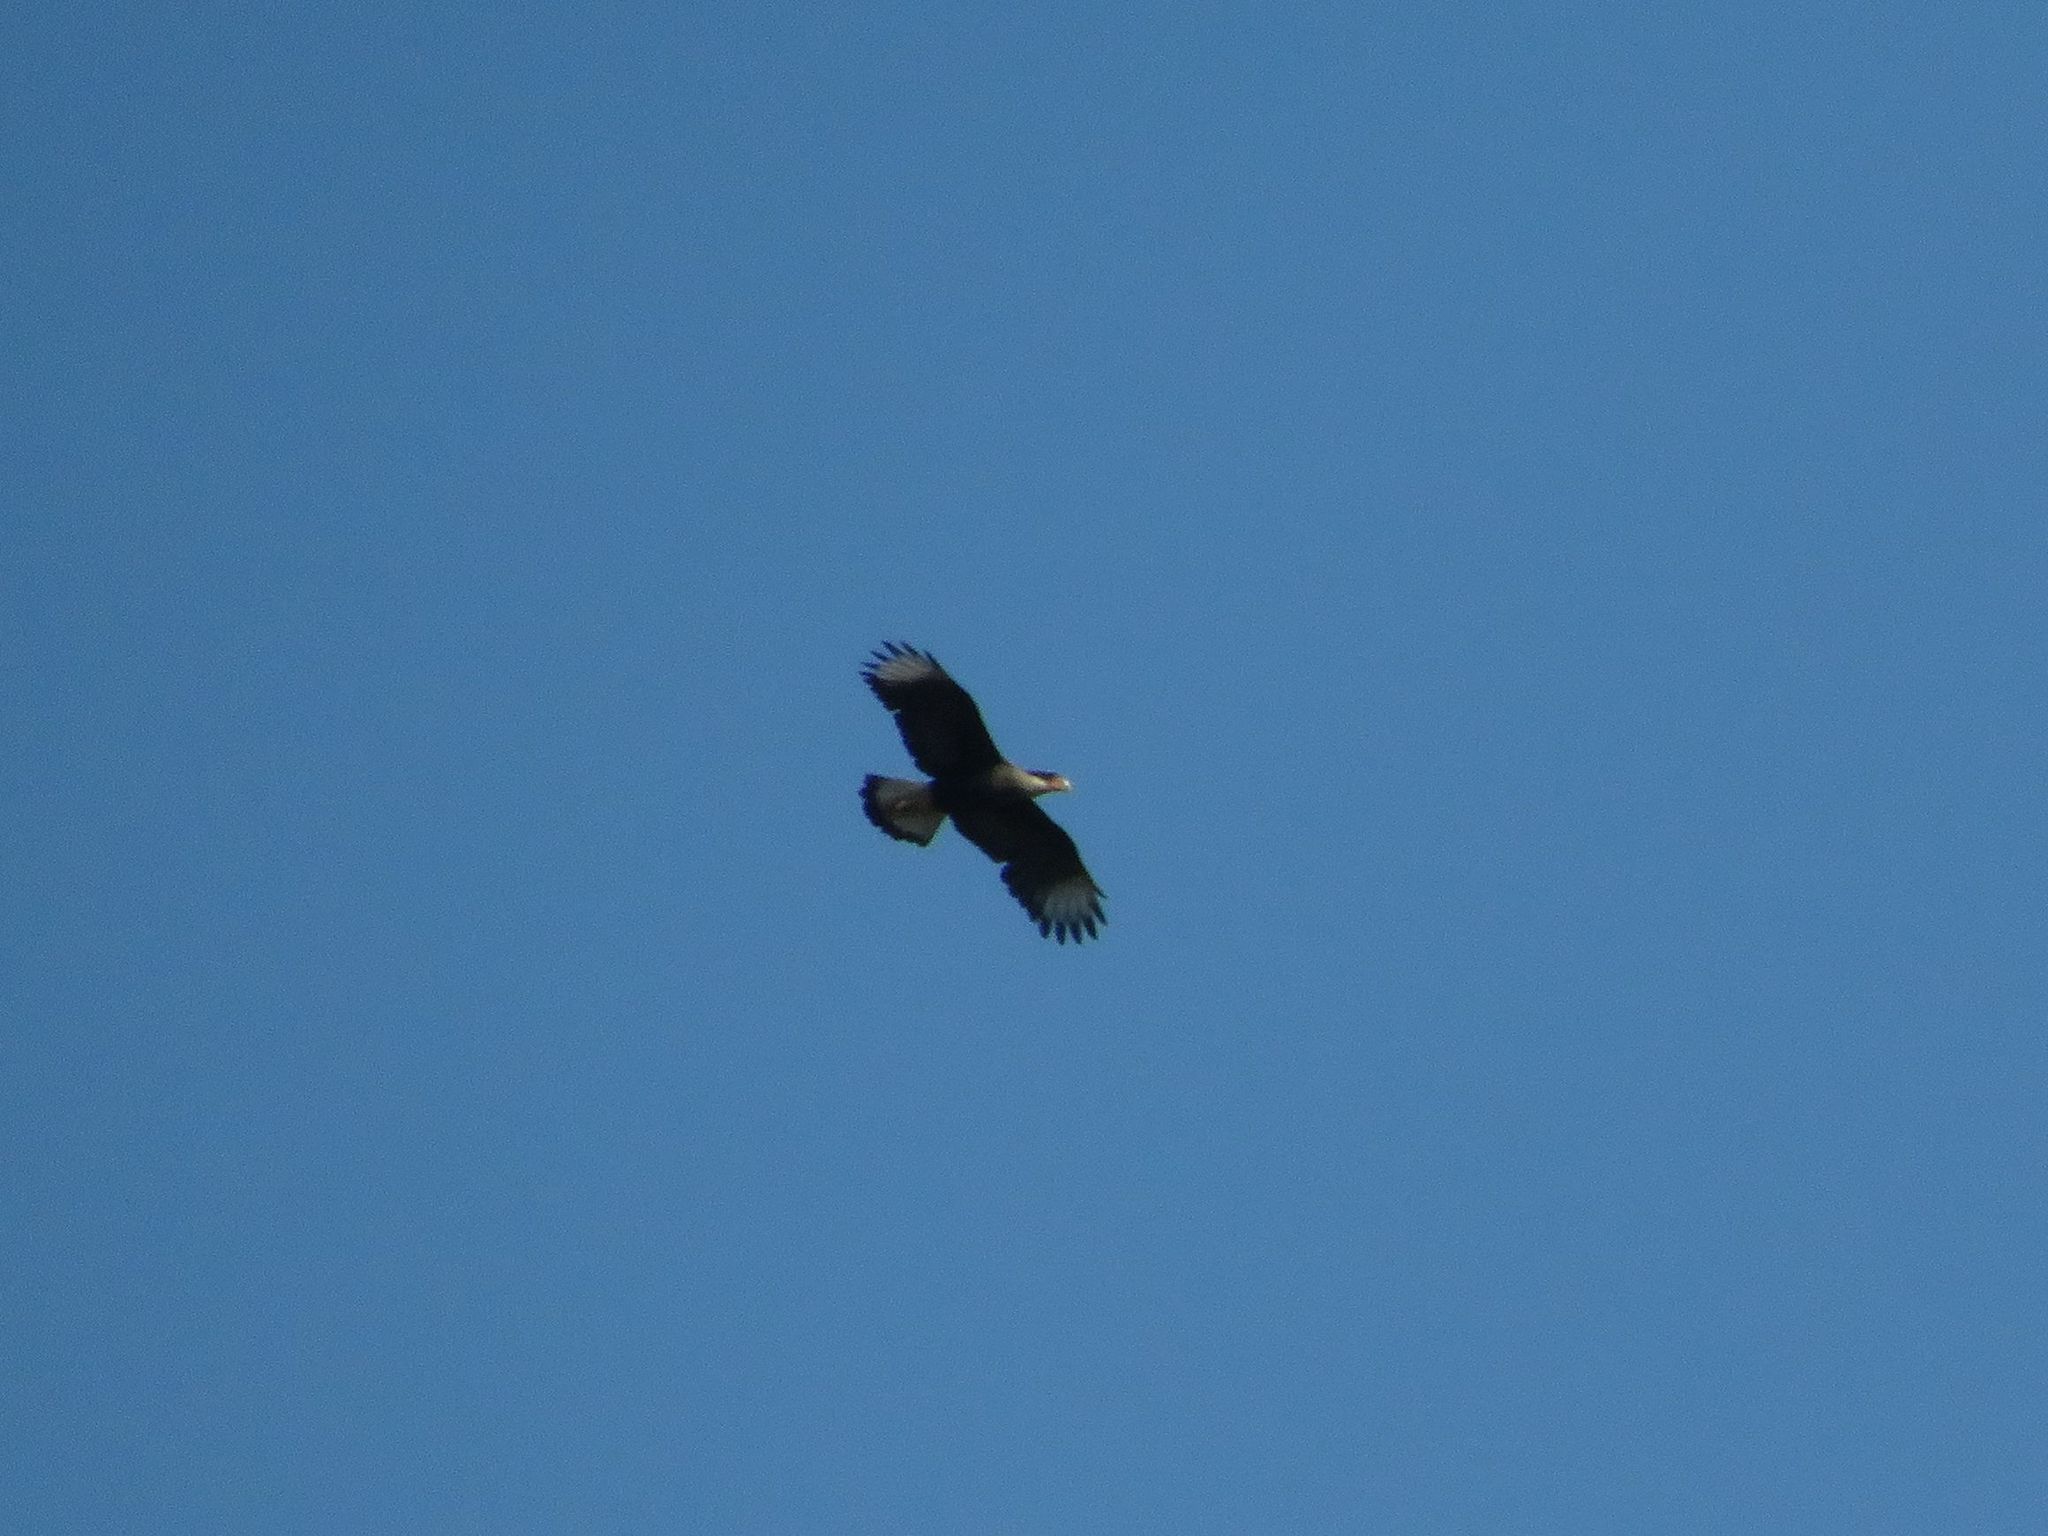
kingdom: Animalia
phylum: Chordata
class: Aves
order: Falconiformes
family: Falconidae
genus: Caracara
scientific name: Caracara plancus
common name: Southern caracara
